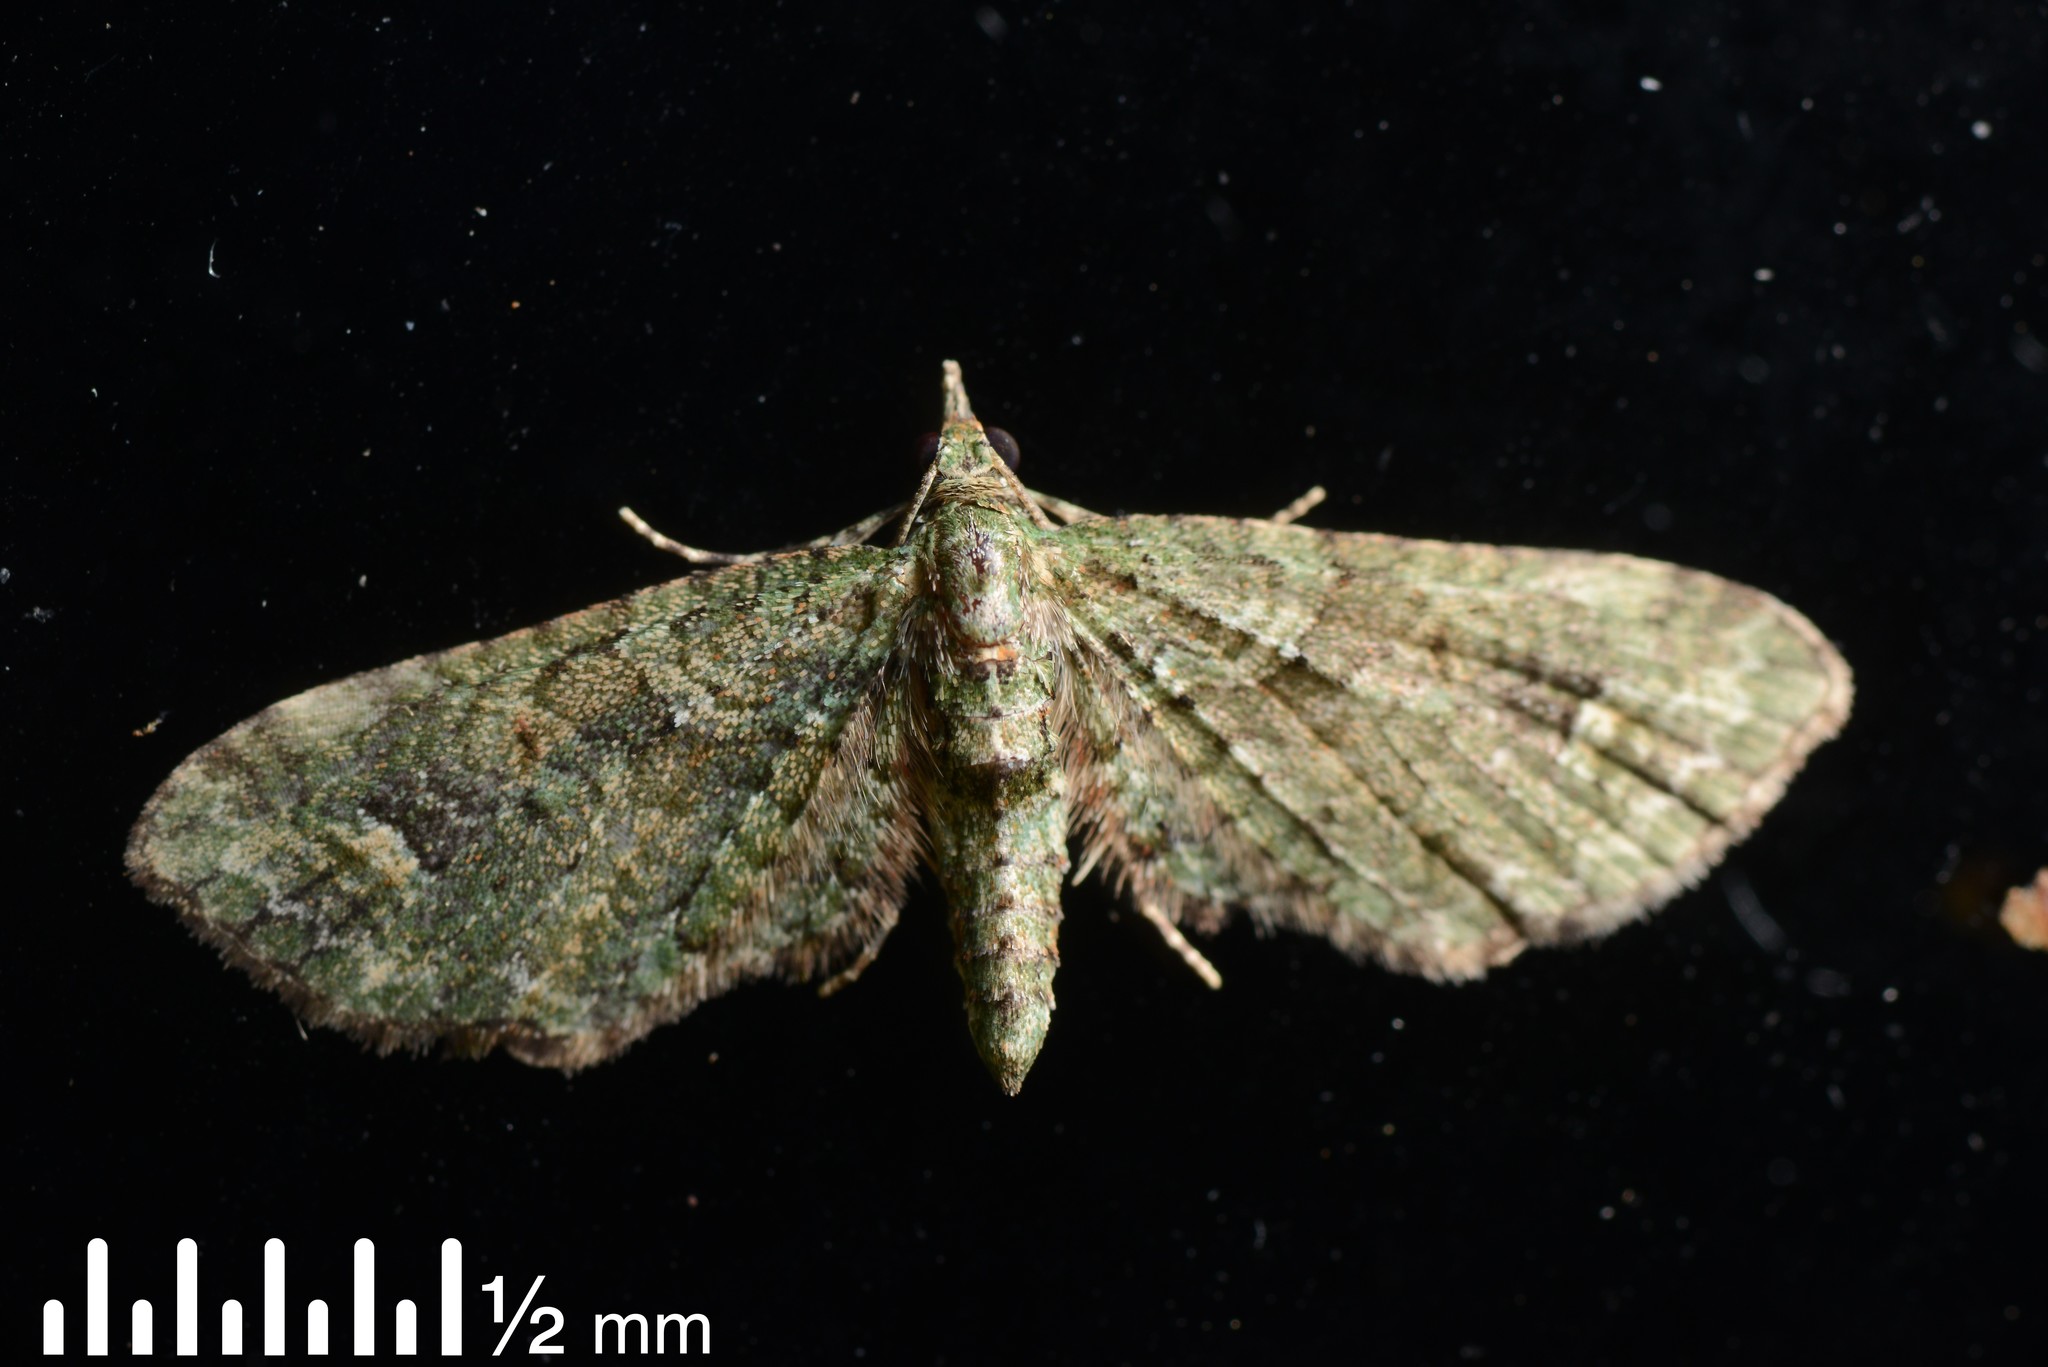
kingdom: Animalia
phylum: Arthropoda
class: Insecta
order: Lepidoptera
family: Geometridae
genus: Idaea
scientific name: Idaea mutanda
